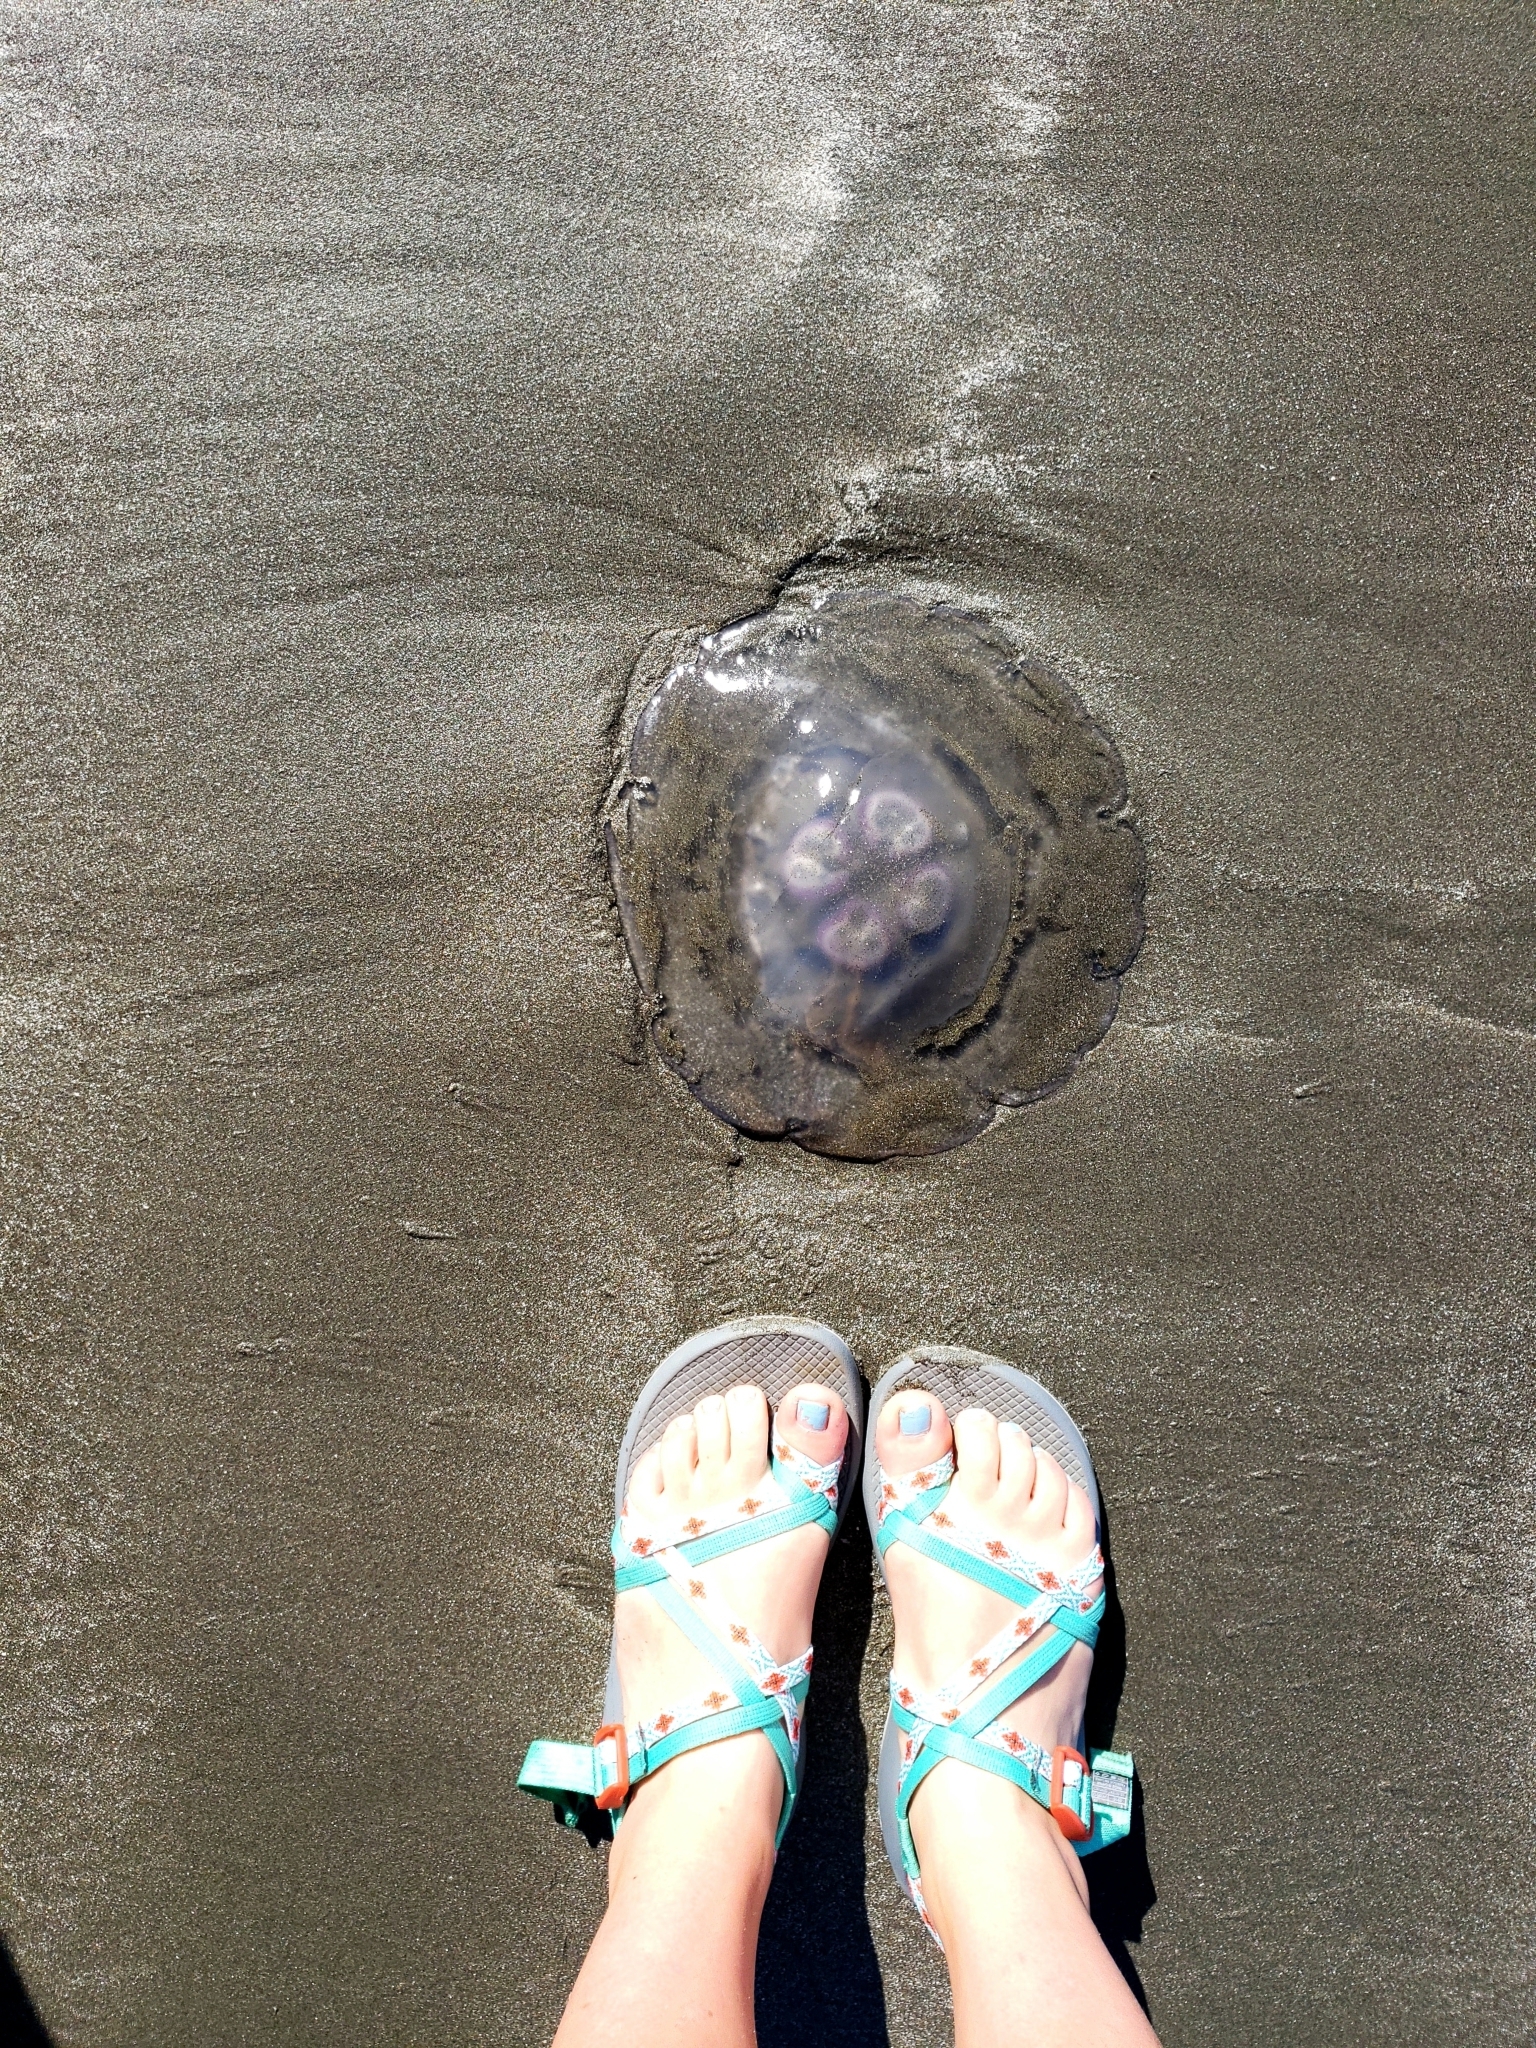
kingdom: Animalia
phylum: Cnidaria
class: Scyphozoa
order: Semaeostomeae
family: Ulmaridae
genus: Aurelia
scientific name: Aurelia labiata
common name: Pacific moon jelly
